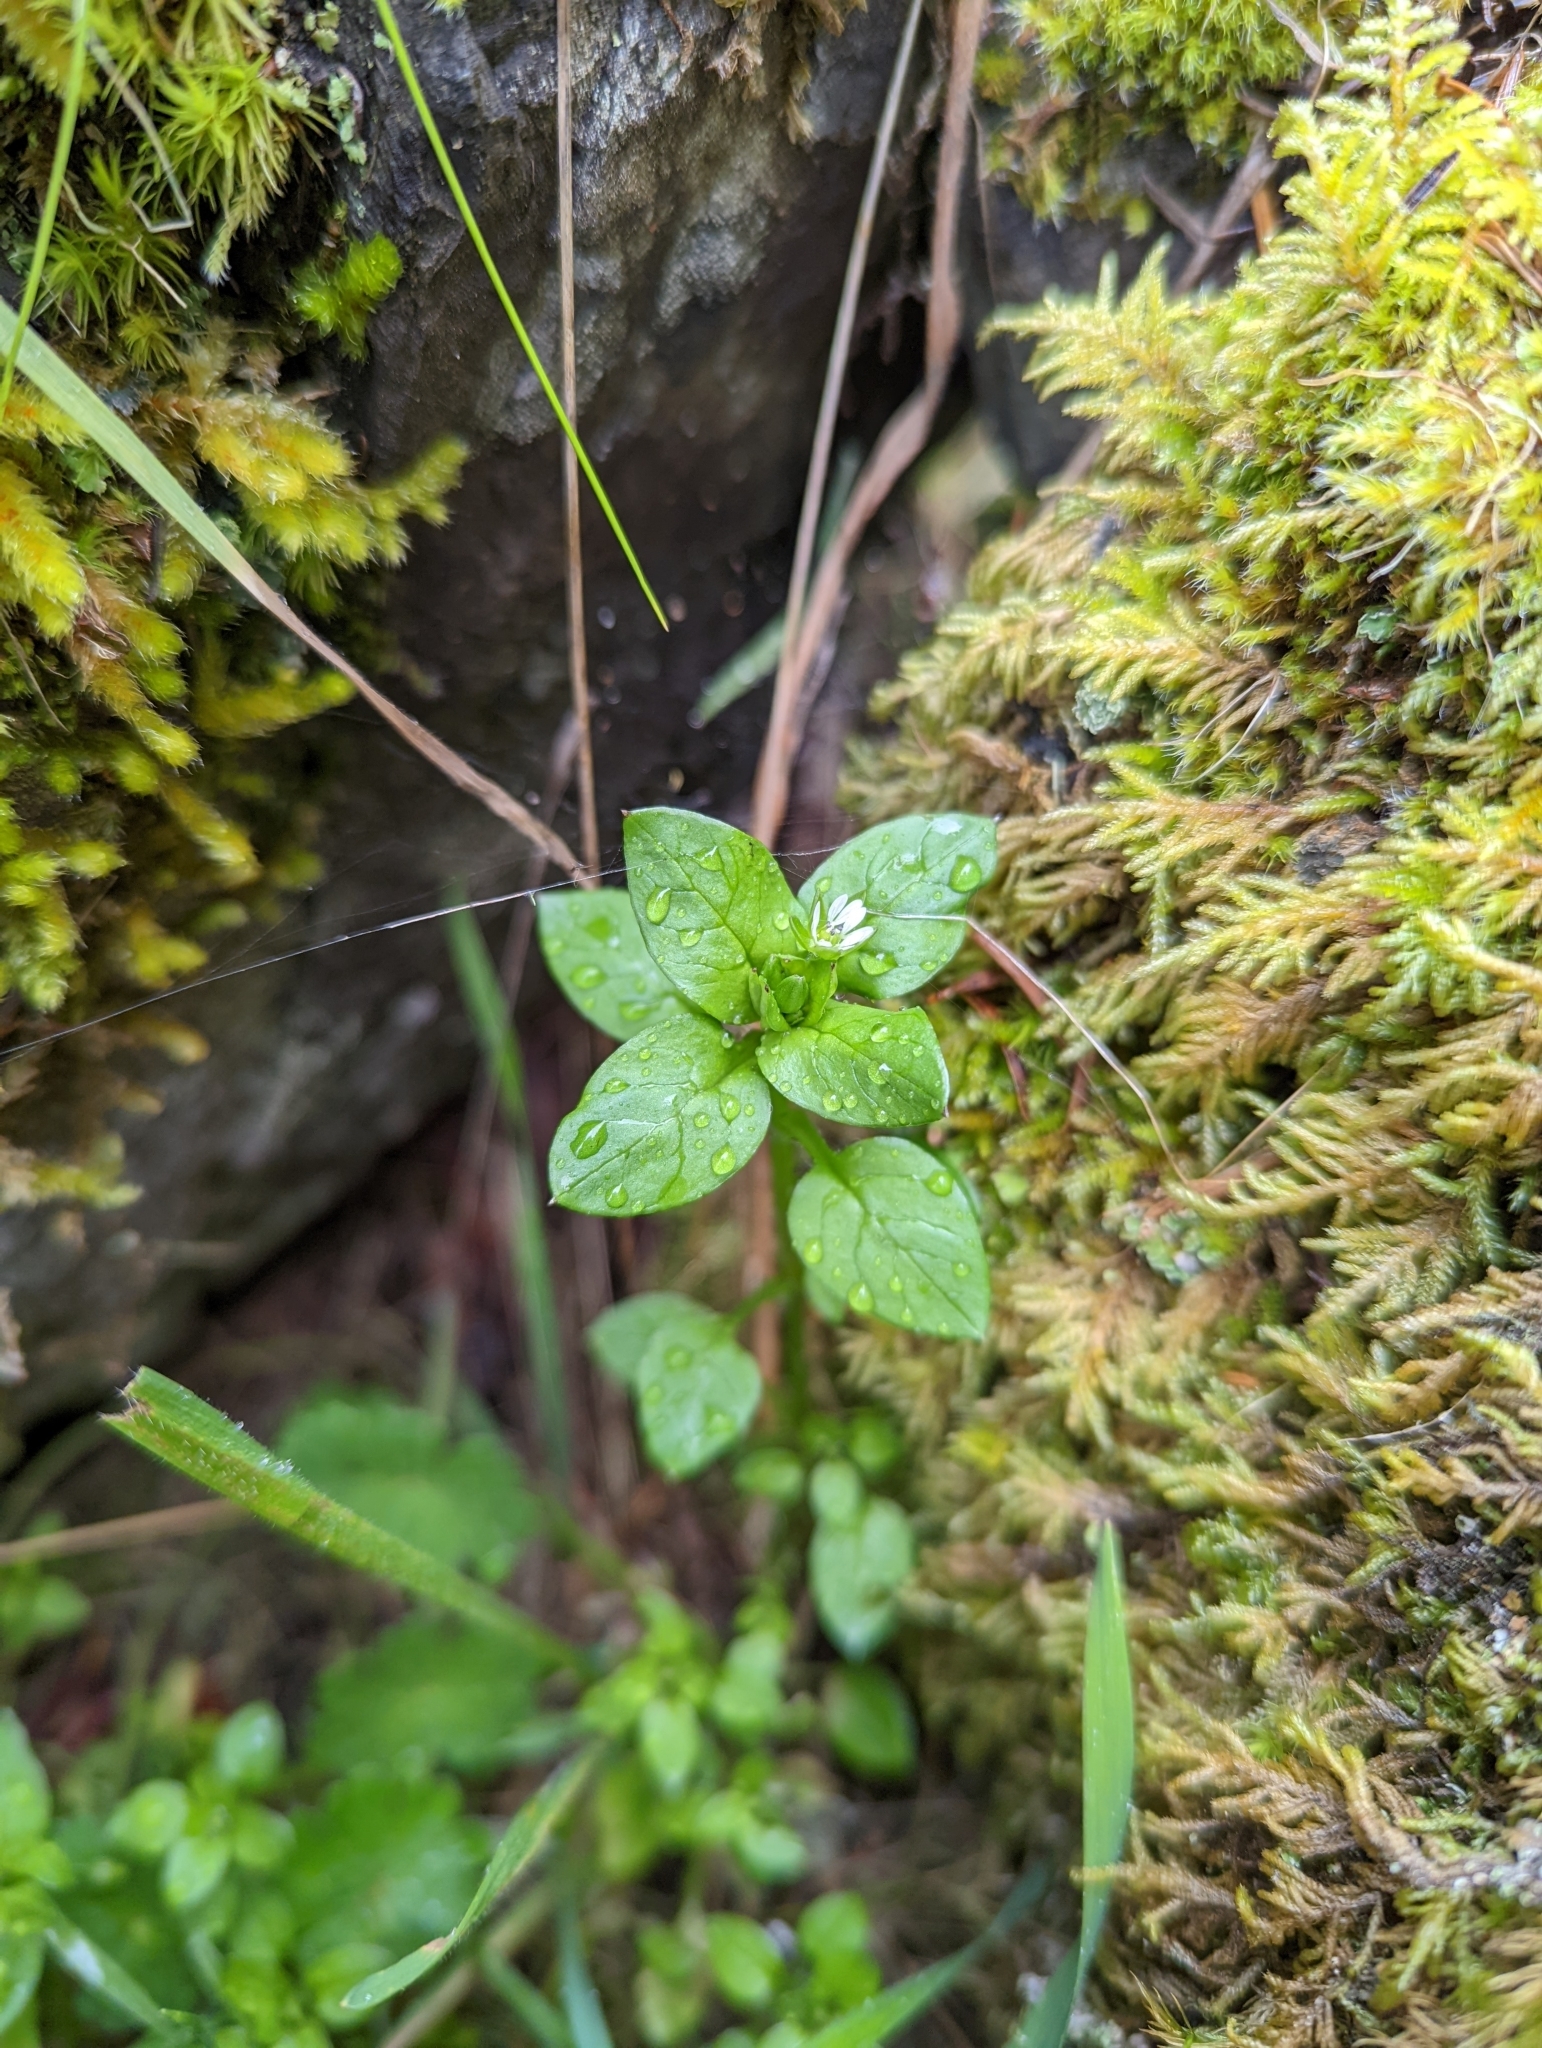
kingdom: Plantae
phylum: Tracheophyta
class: Magnoliopsida
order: Caryophyllales
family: Caryophyllaceae
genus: Stellaria
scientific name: Stellaria media
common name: Common chickweed
